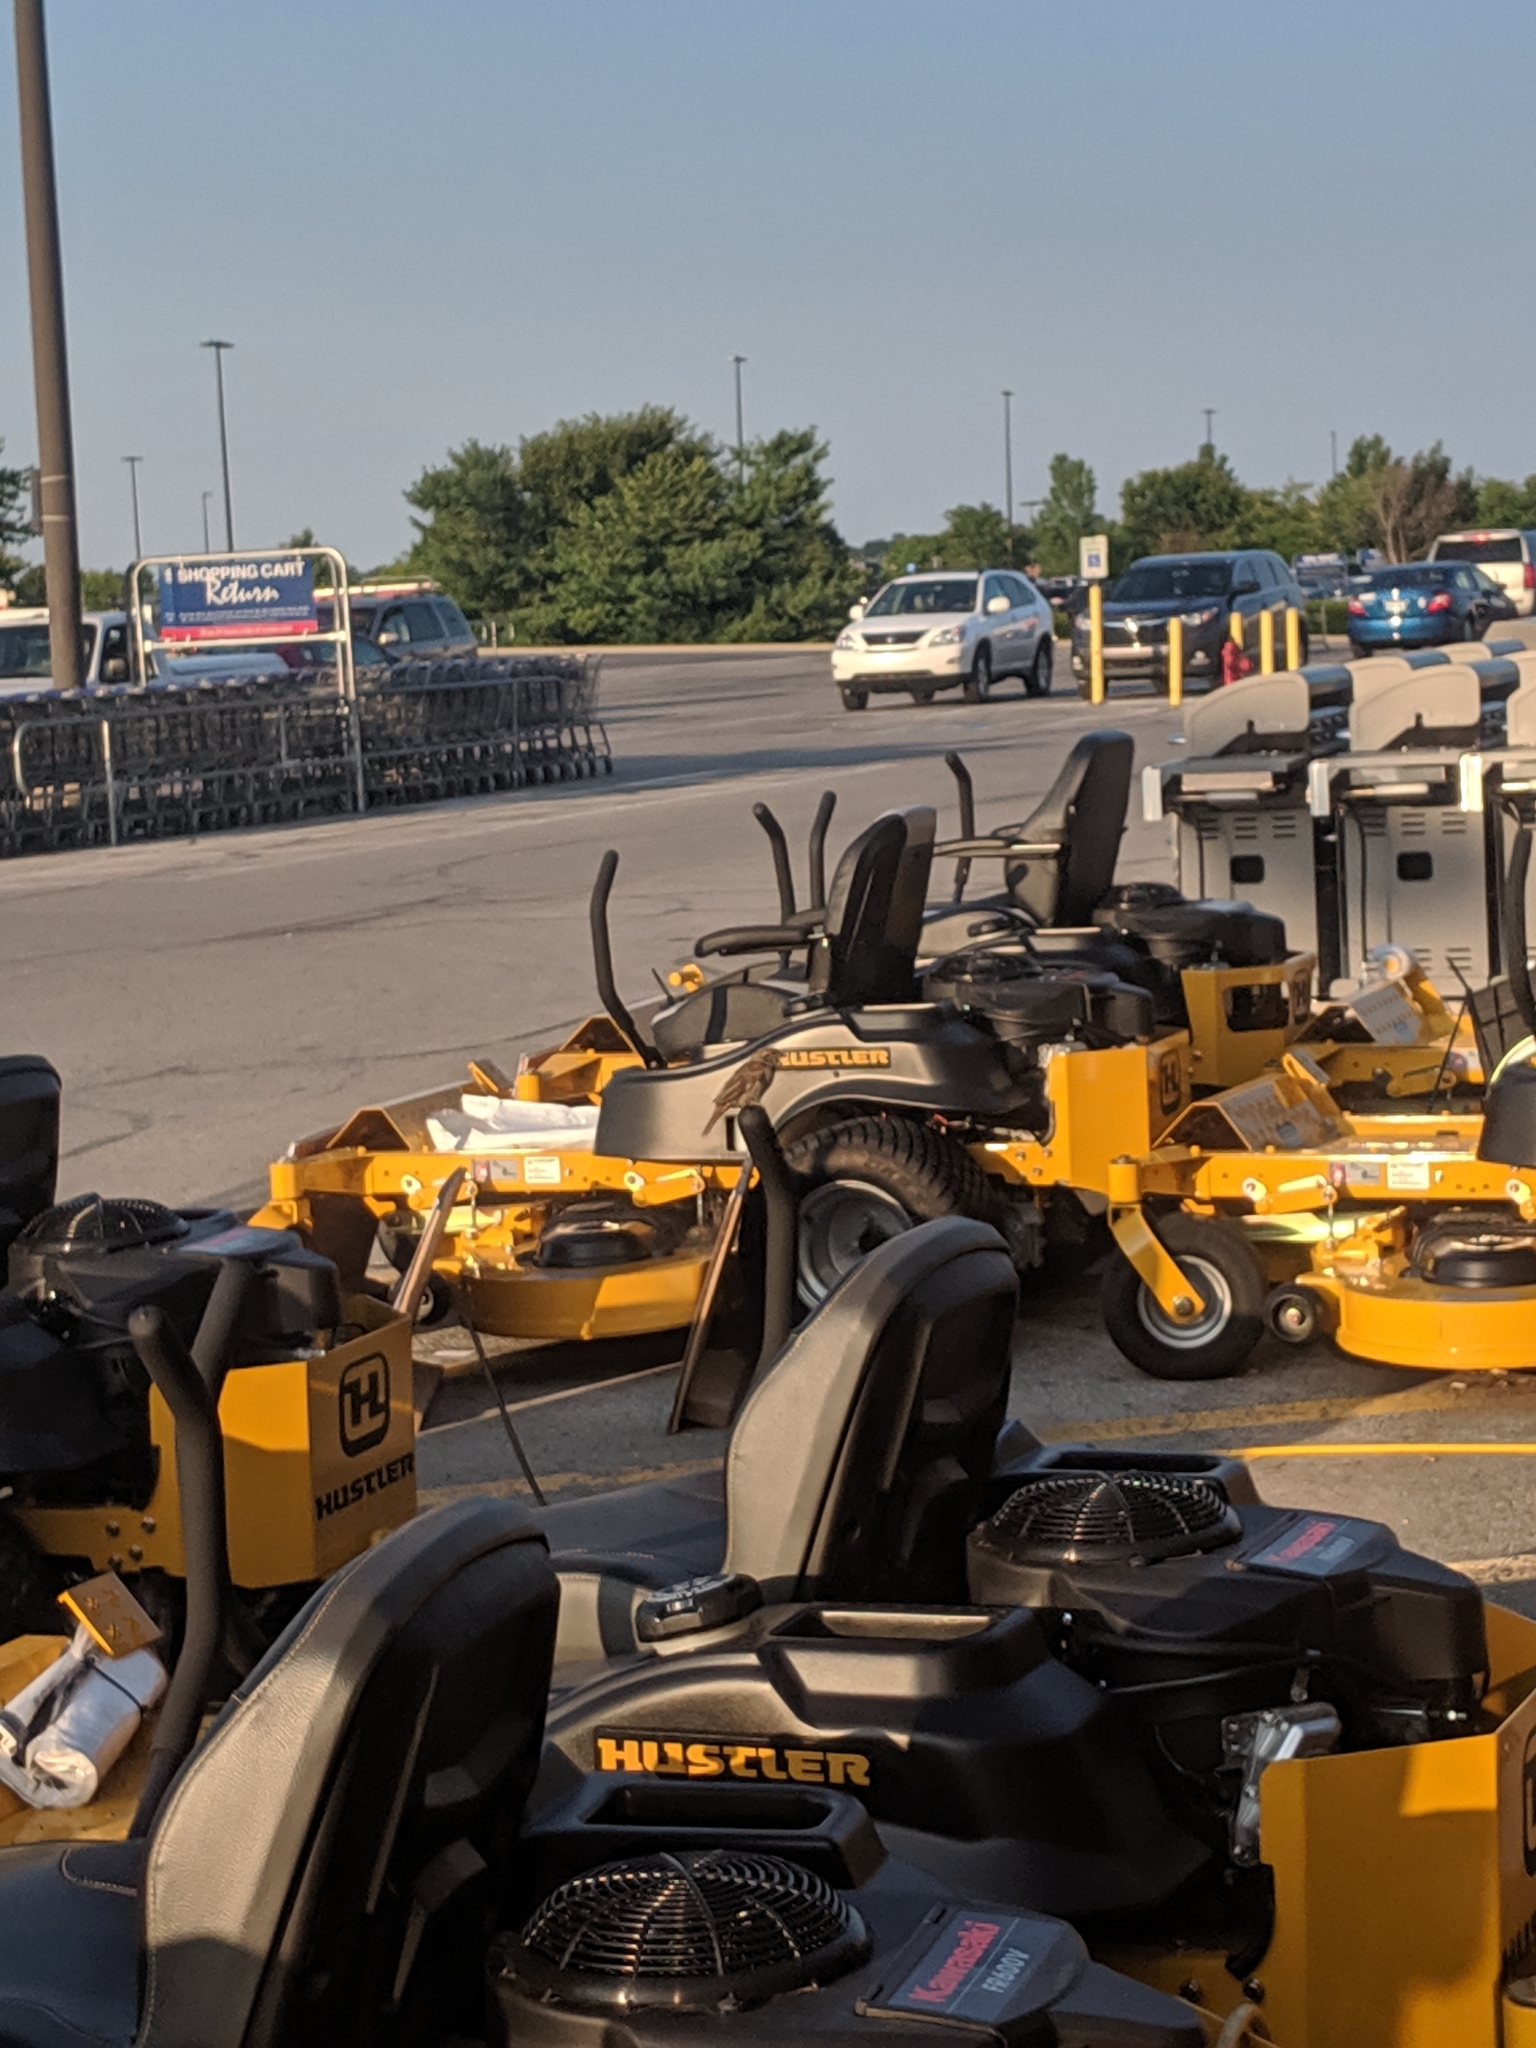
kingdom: Animalia
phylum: Chordata
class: Aves
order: Passeriformes
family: Passeridae
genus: Passer
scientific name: Passer domesticus
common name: House sparrow
